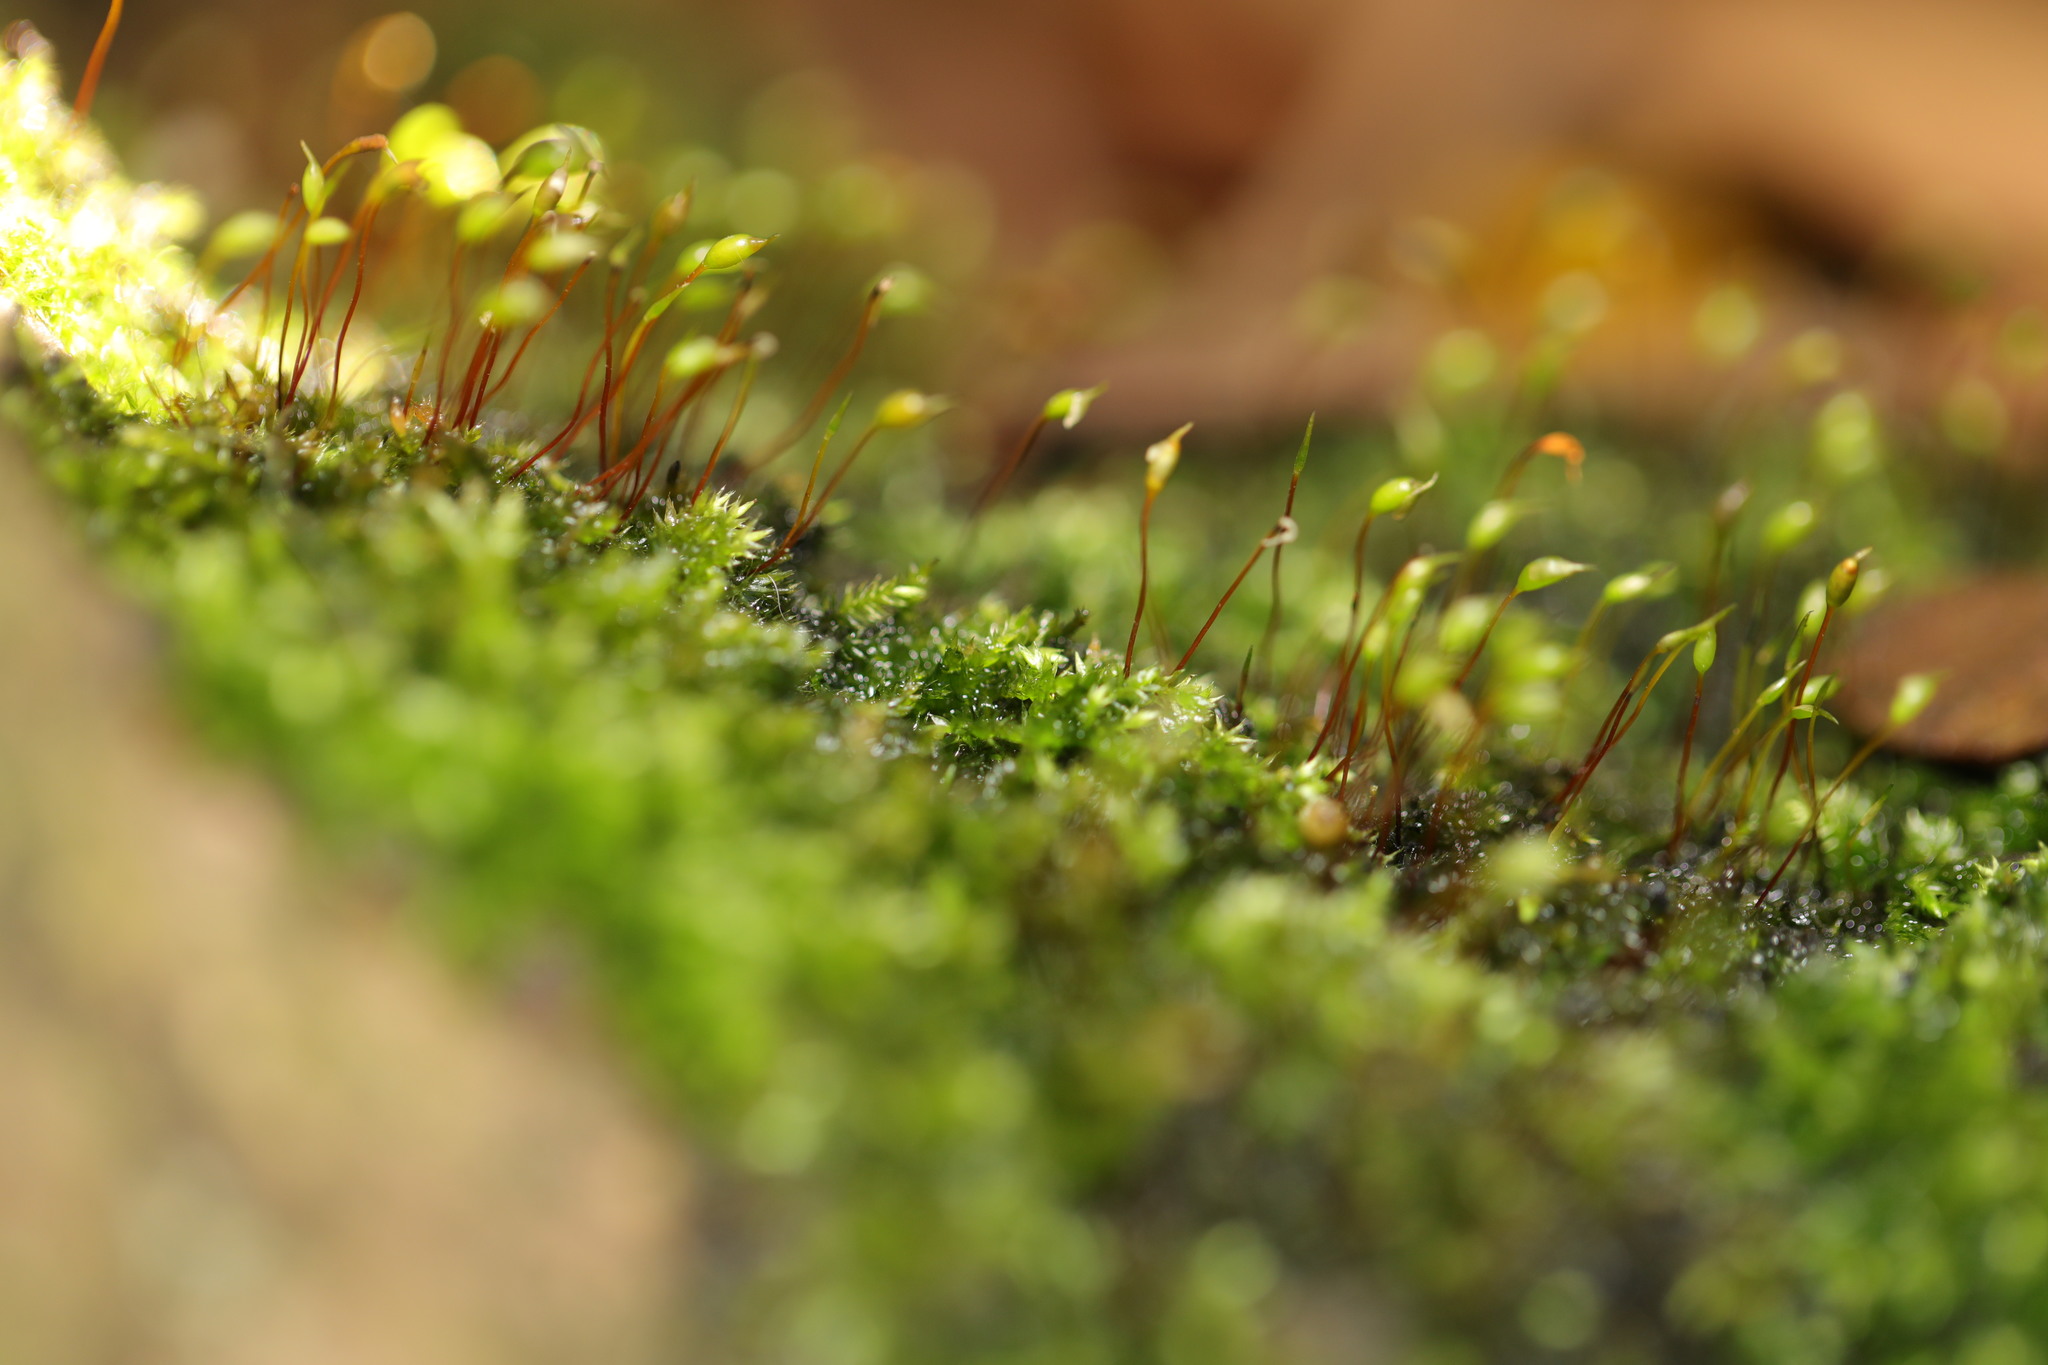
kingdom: Plantae
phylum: Bryophyta
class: Bryopsida
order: Hypnales
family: Brachytheciaceae
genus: Rhynchostegium
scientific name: Rhynchostegium confertum
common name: Clustered feather-moss
